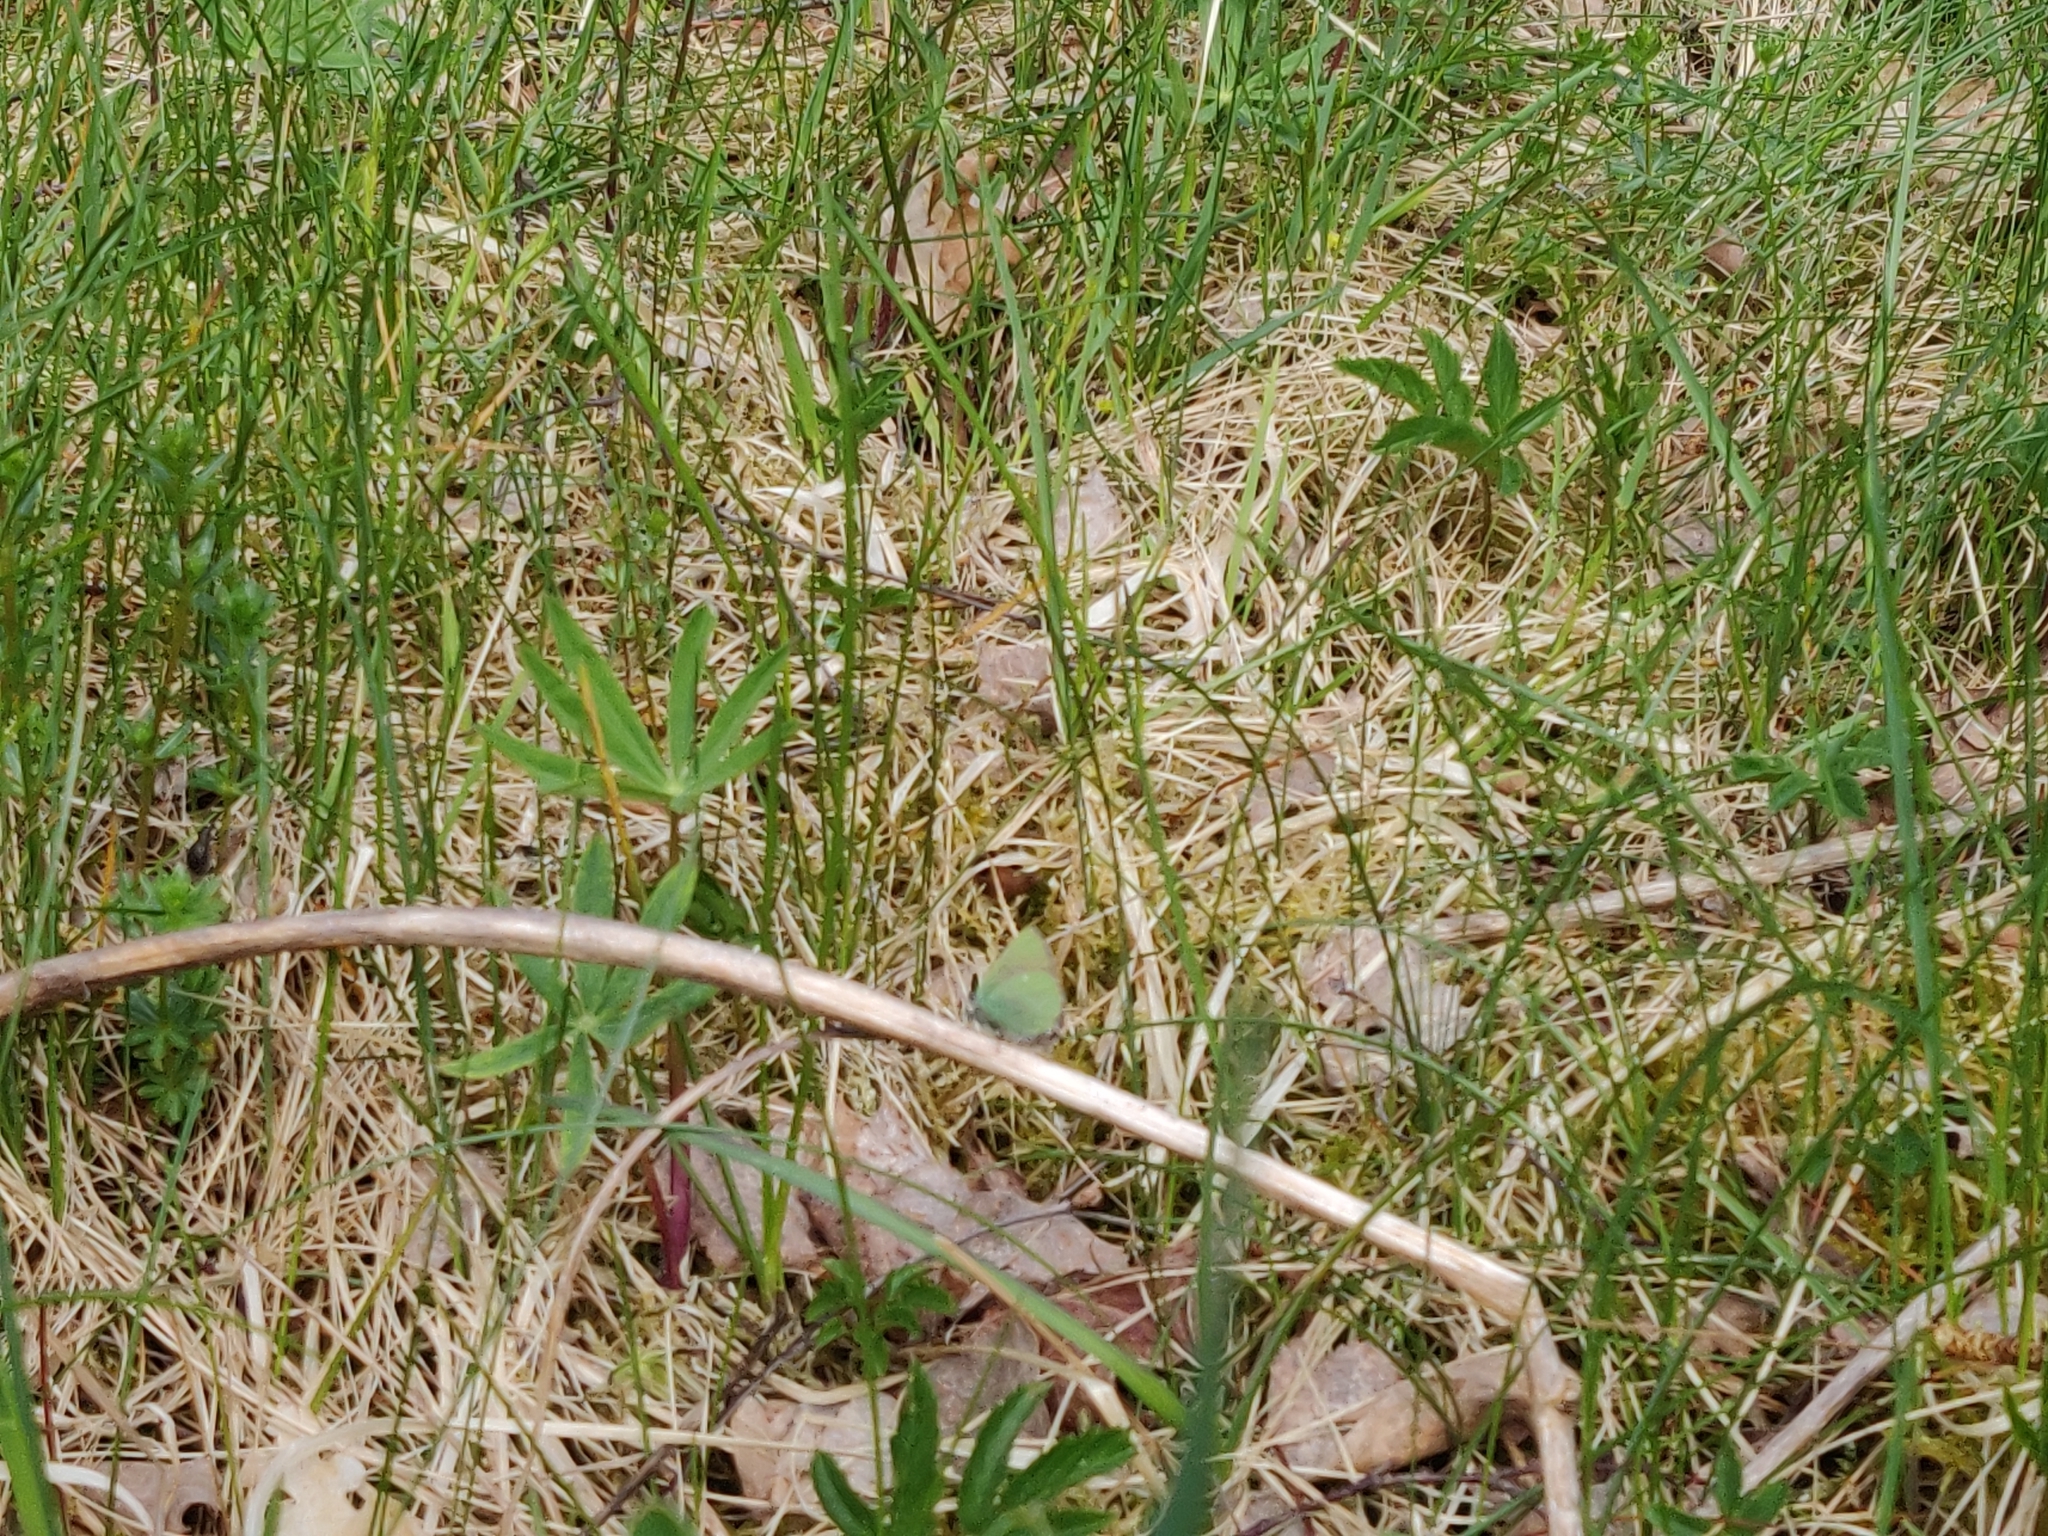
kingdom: Animalia
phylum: Arthropoda
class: Insecta
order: Lepidoptera
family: Lycaenidae
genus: Callophrys
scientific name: Callophrys rubi
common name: Green hairstreak
